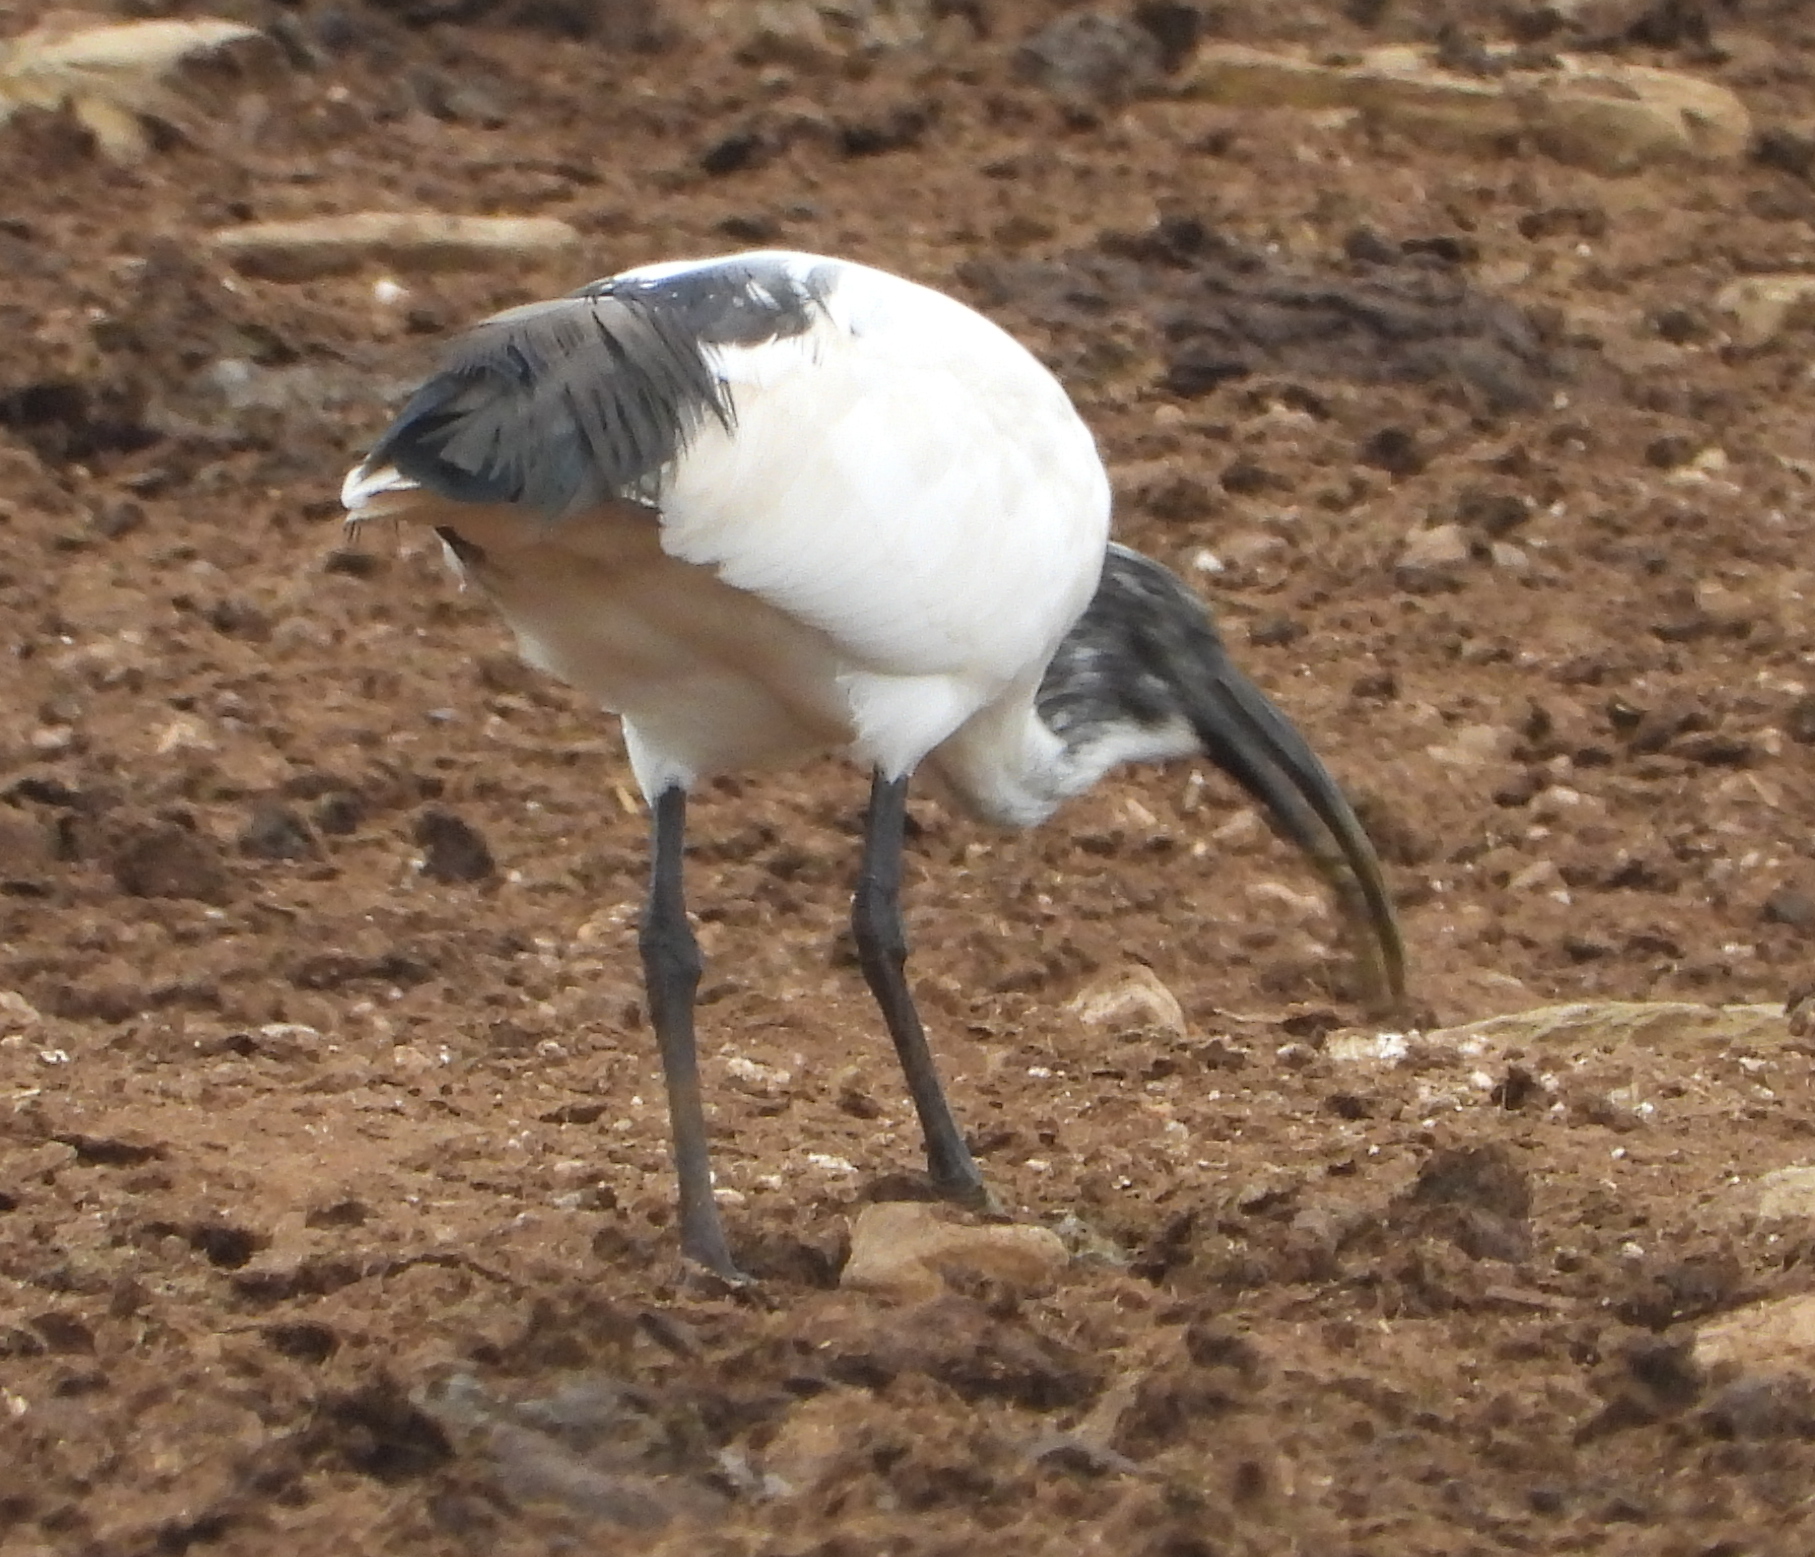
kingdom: Animalia
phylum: Chordata
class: Aves
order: Pelecaniformes
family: Threskiornithidae
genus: Threskiornis
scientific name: Threskiornis aethiopicus
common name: Sacred ibis
